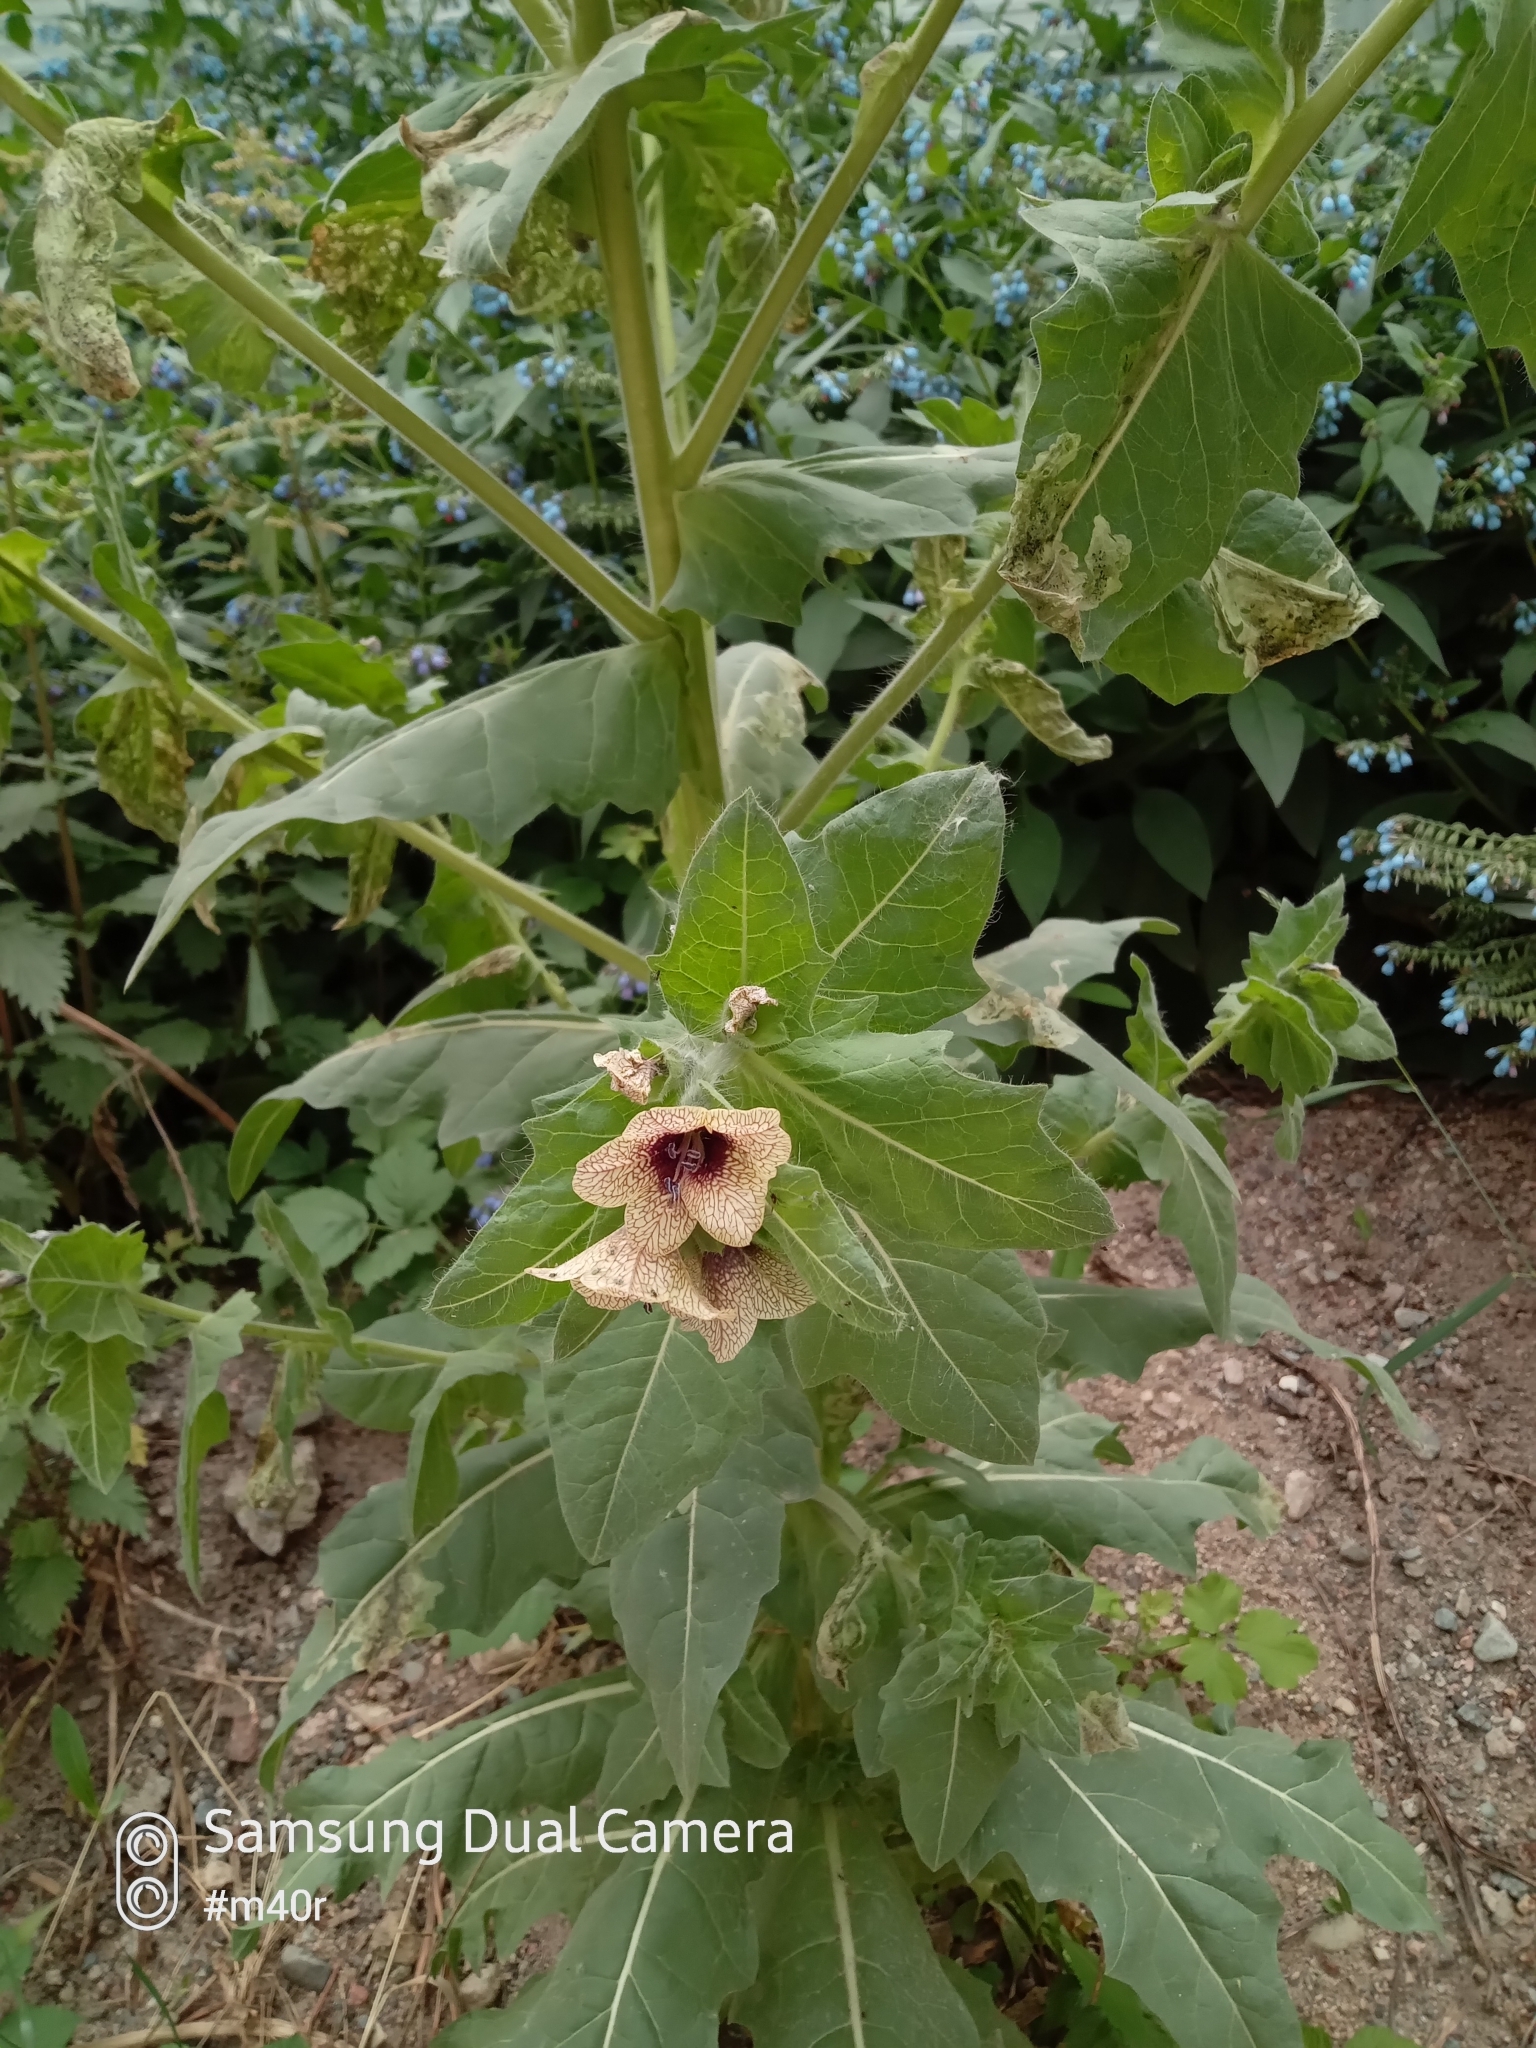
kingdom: Plantae
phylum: Tracheophyta
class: Magnoliopsida
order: Solanales
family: Solanaceae
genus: Hyoscyamus
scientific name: Hyoscyamus niger
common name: Henbane
